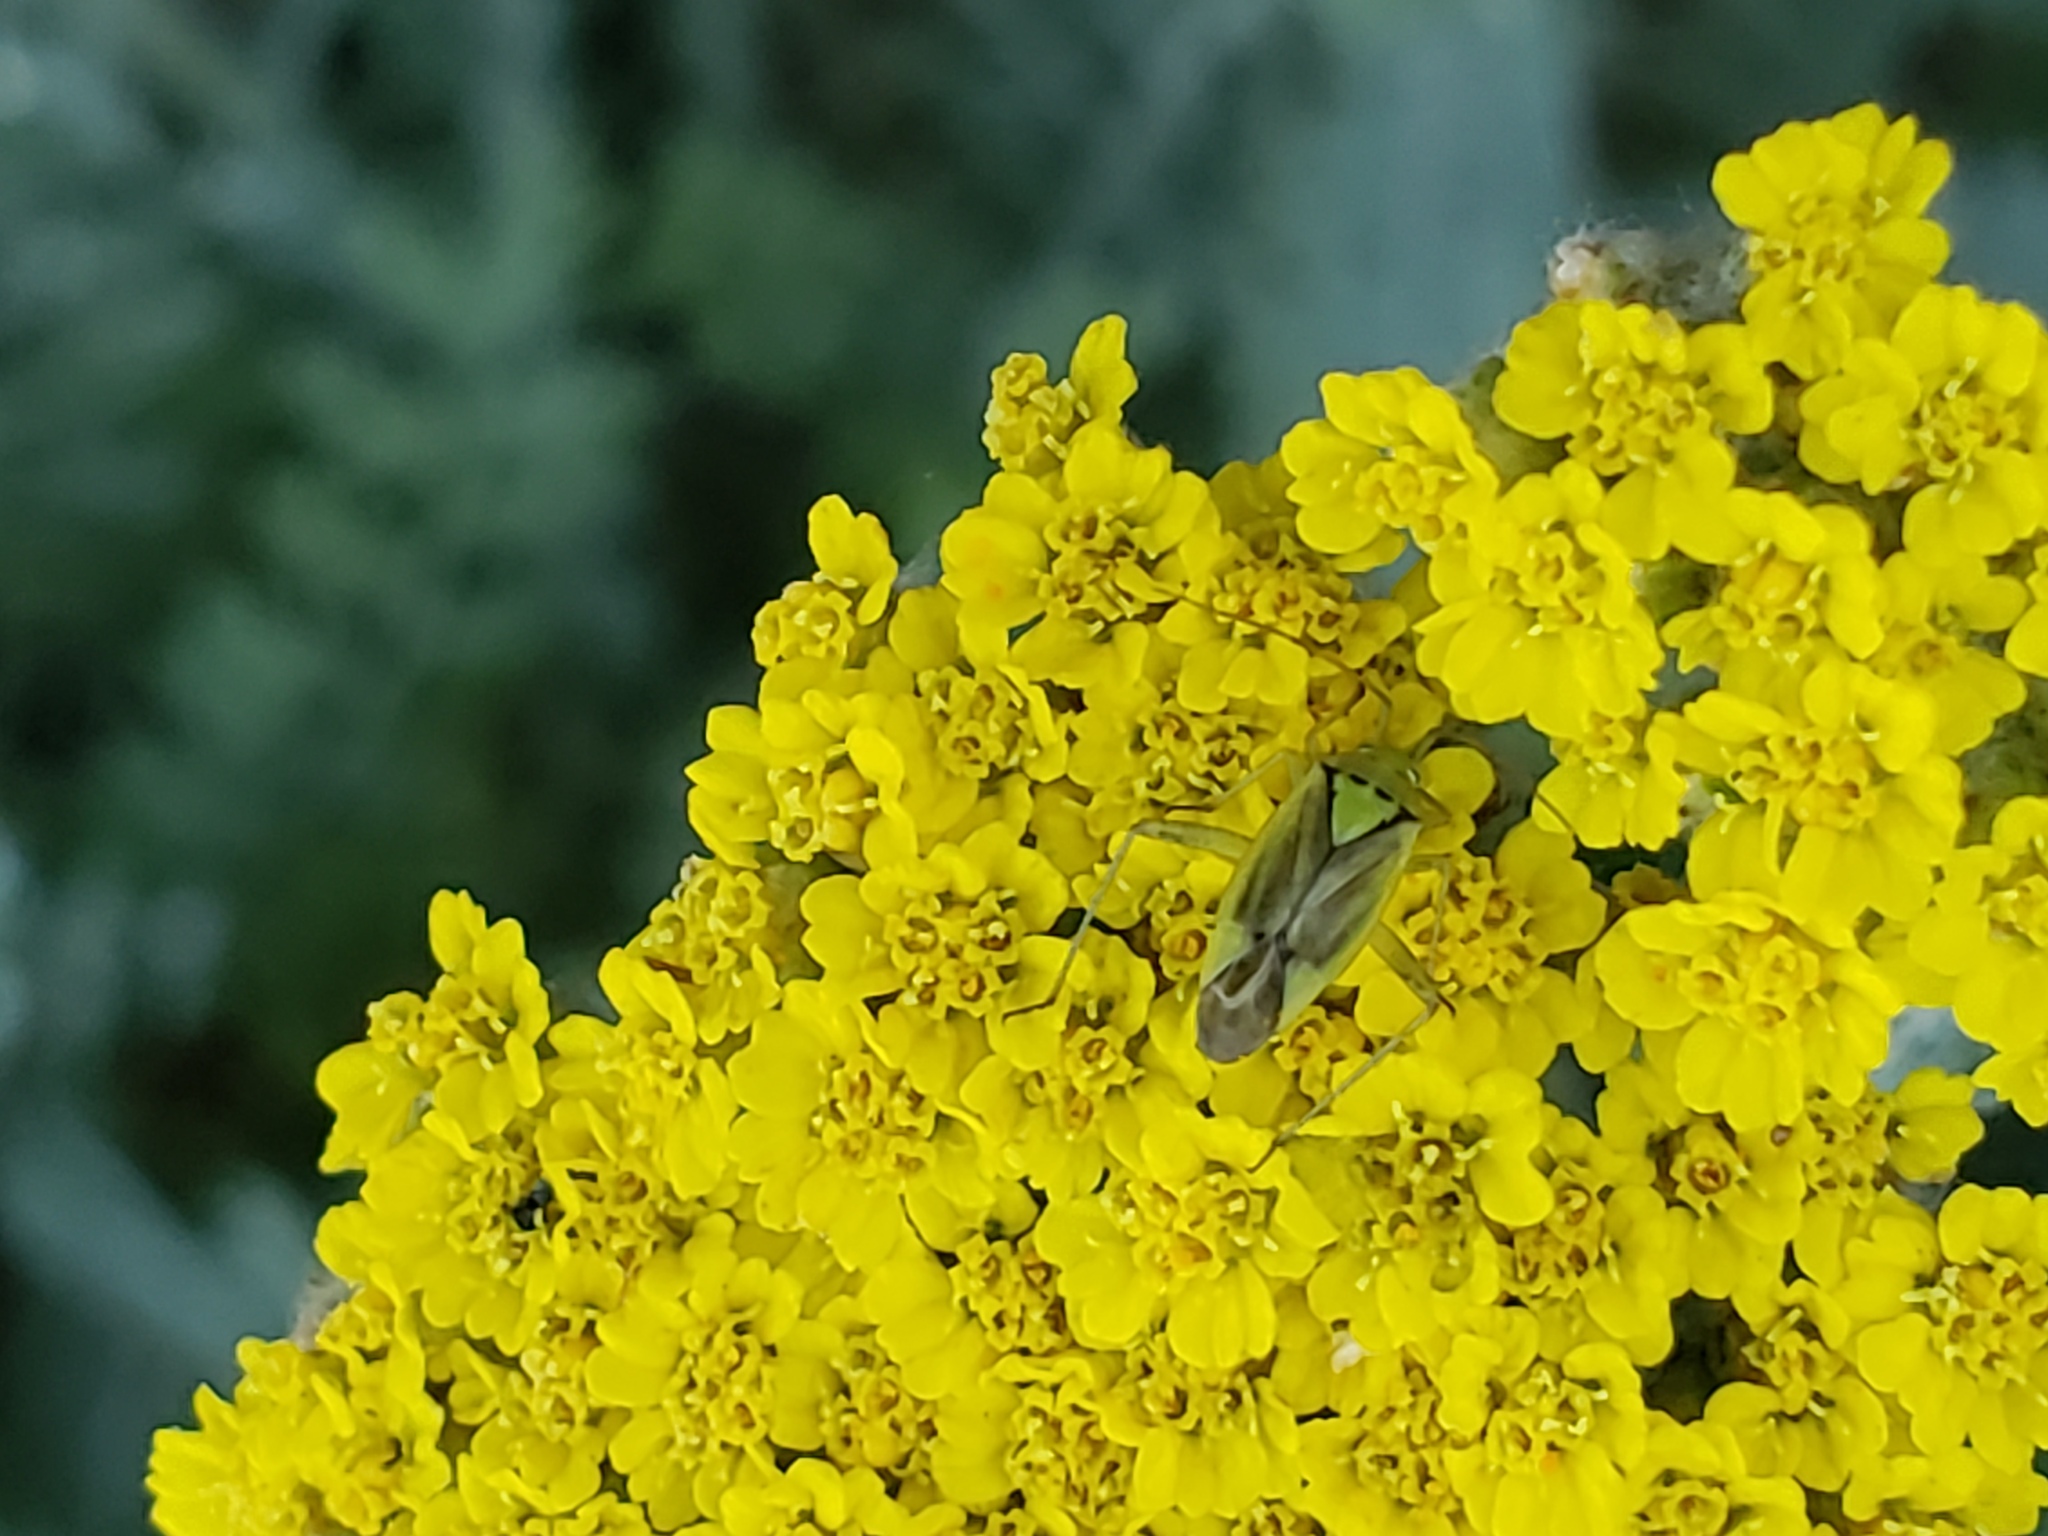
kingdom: Animalia
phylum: Arthropoda
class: Insecta
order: Hemiptera
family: Miridae
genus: Closterotomus
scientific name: Closterotomus norvegicus
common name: Plant bug
